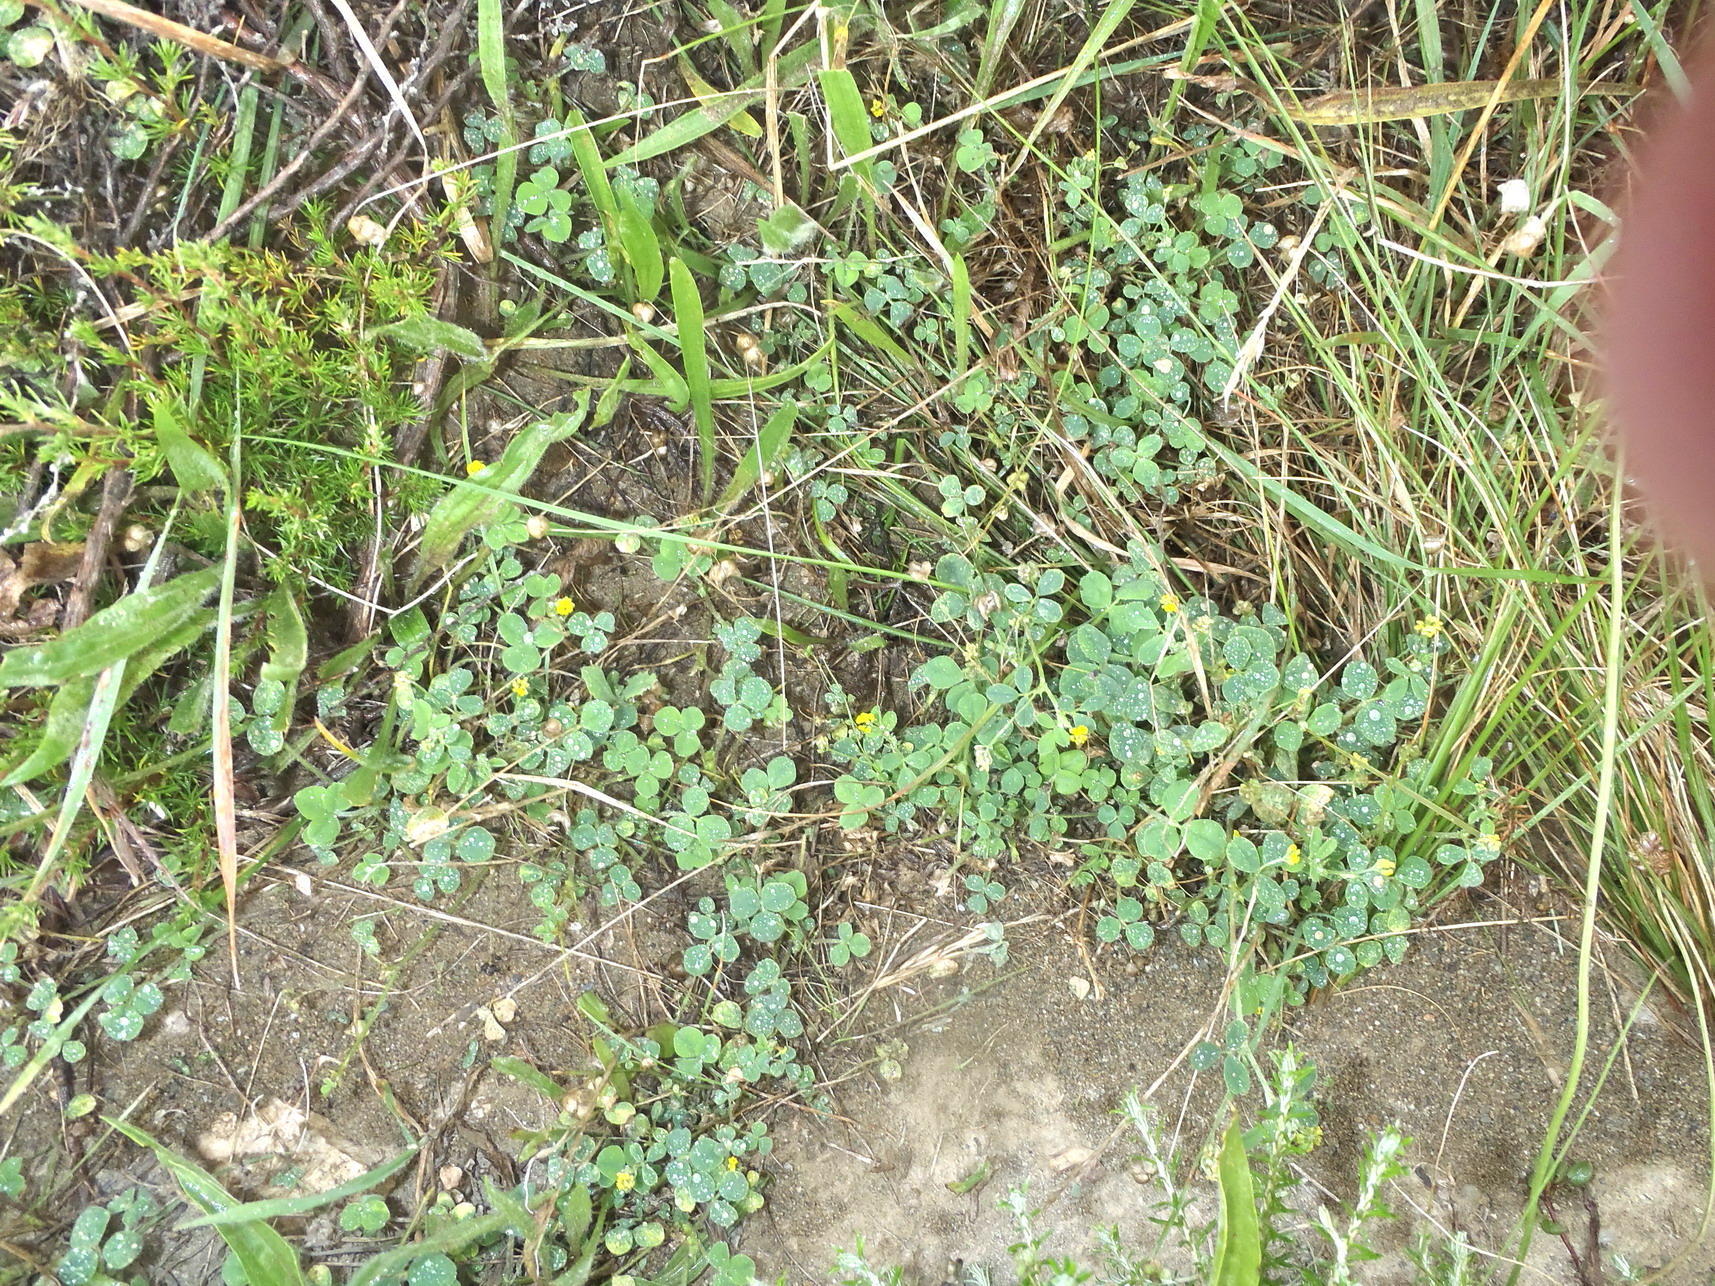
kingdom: Plantae
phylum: Tracheophyta
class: Magnoliopsida
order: Fabales
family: Fabaceae
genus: Medicago
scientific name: Medicago lupulina
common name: Black medick
